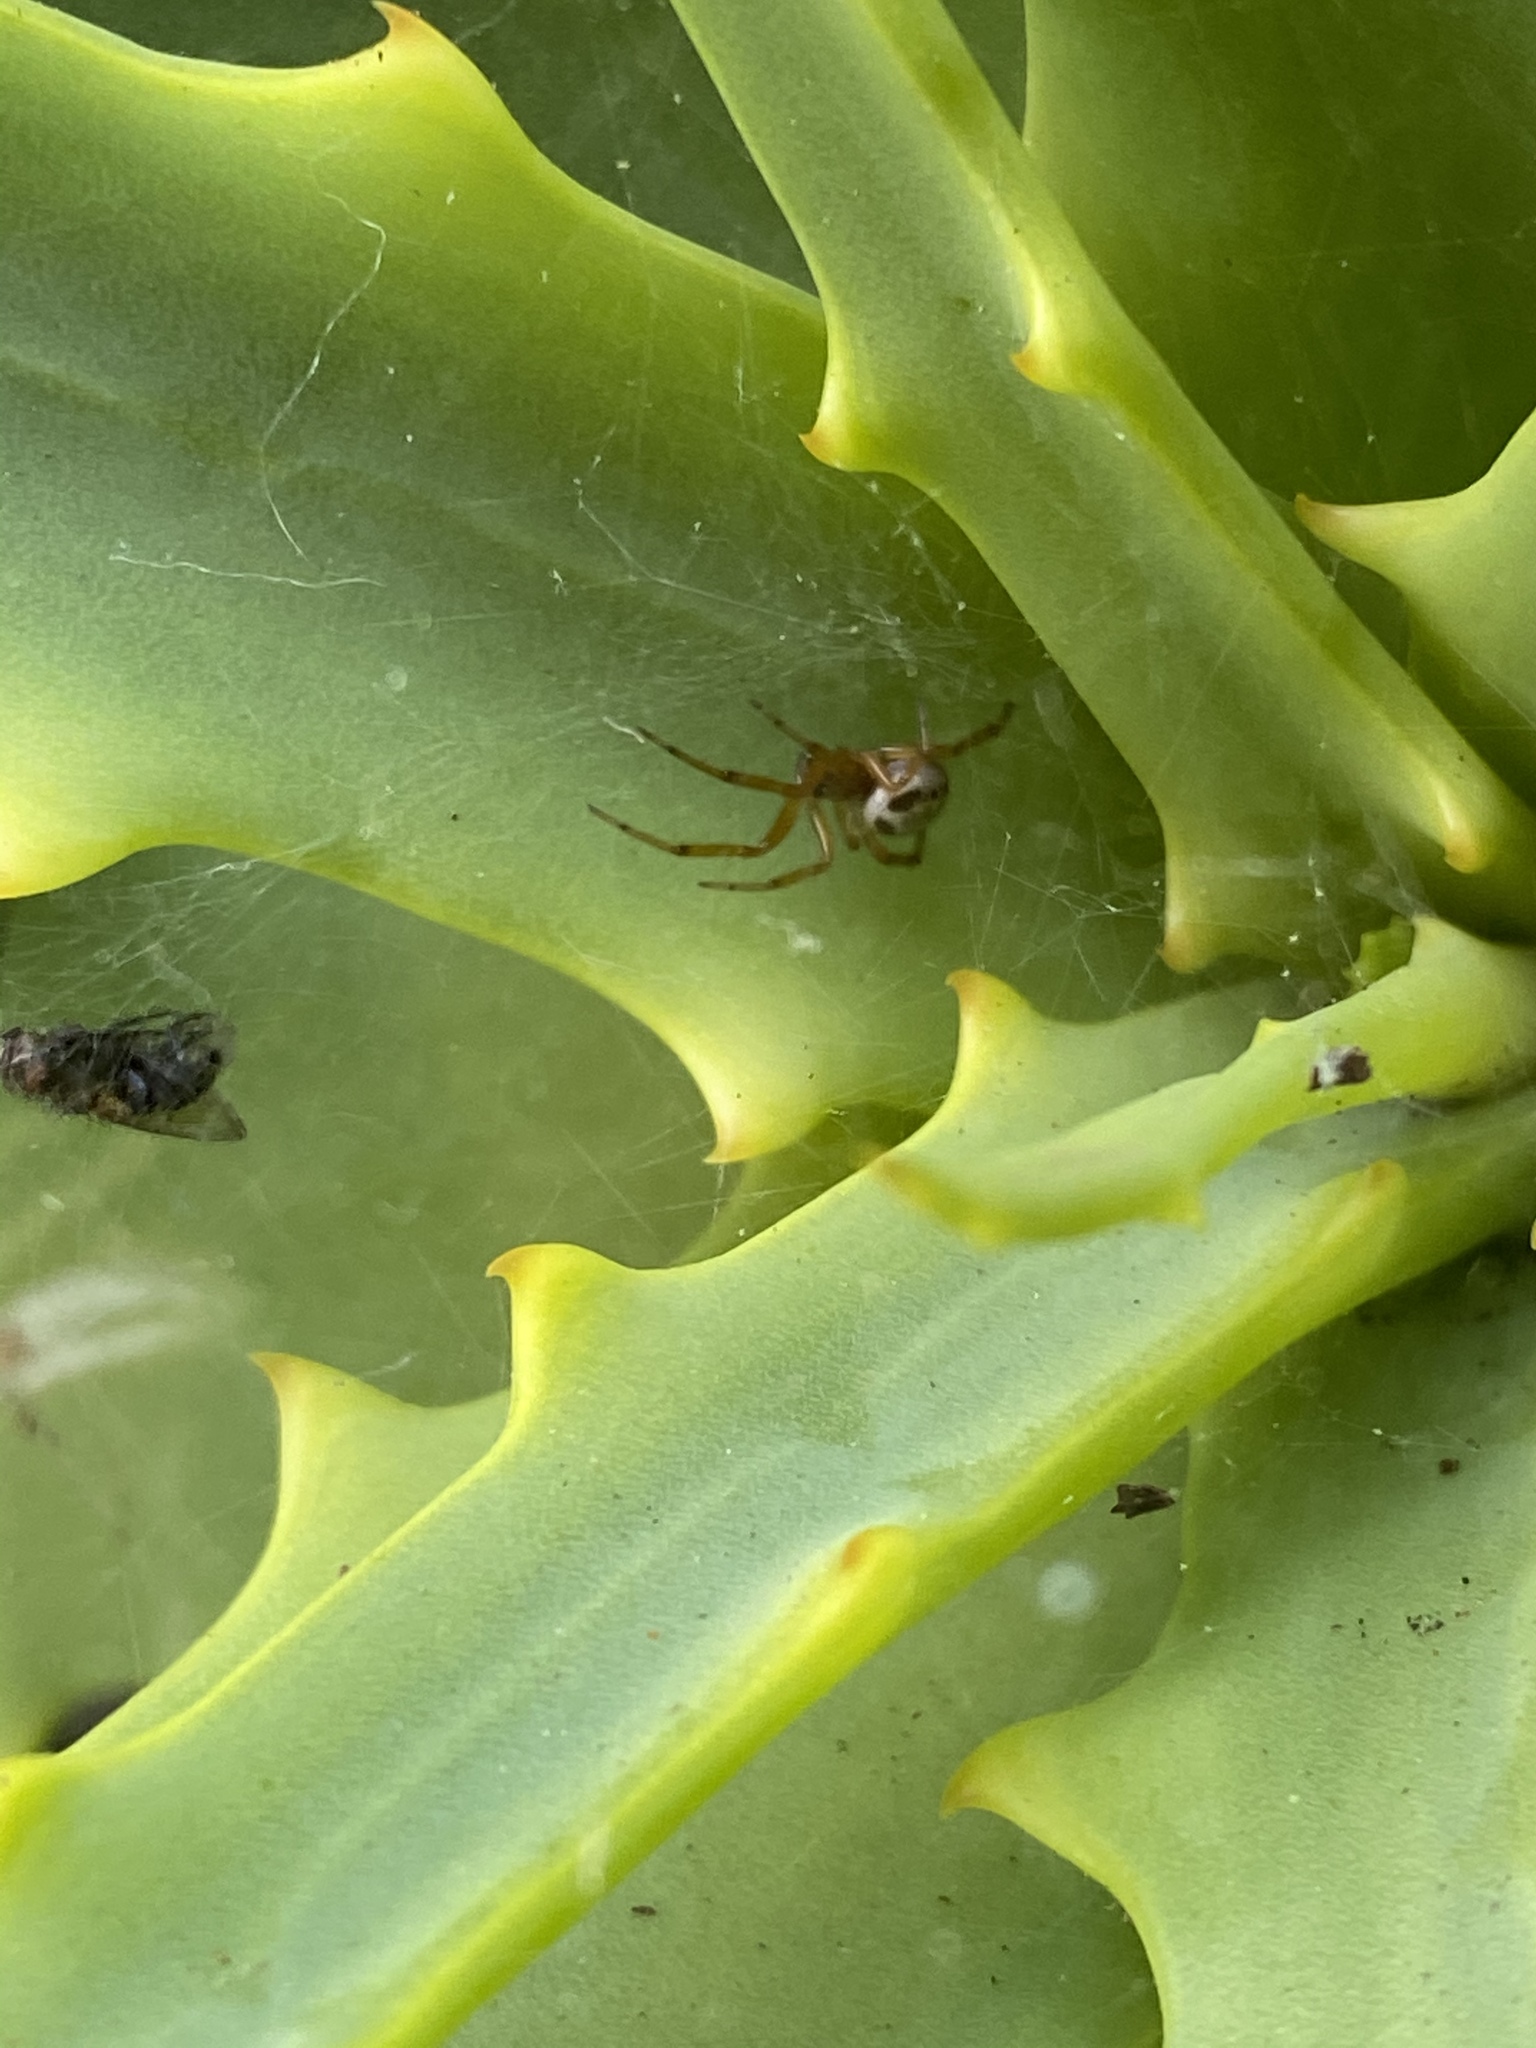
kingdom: Animalia
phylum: Arthropoda
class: Arachnida
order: Araneae
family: Theridiidae
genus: Steatoda
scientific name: Steatoda nobilis
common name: Cobweb weaver
